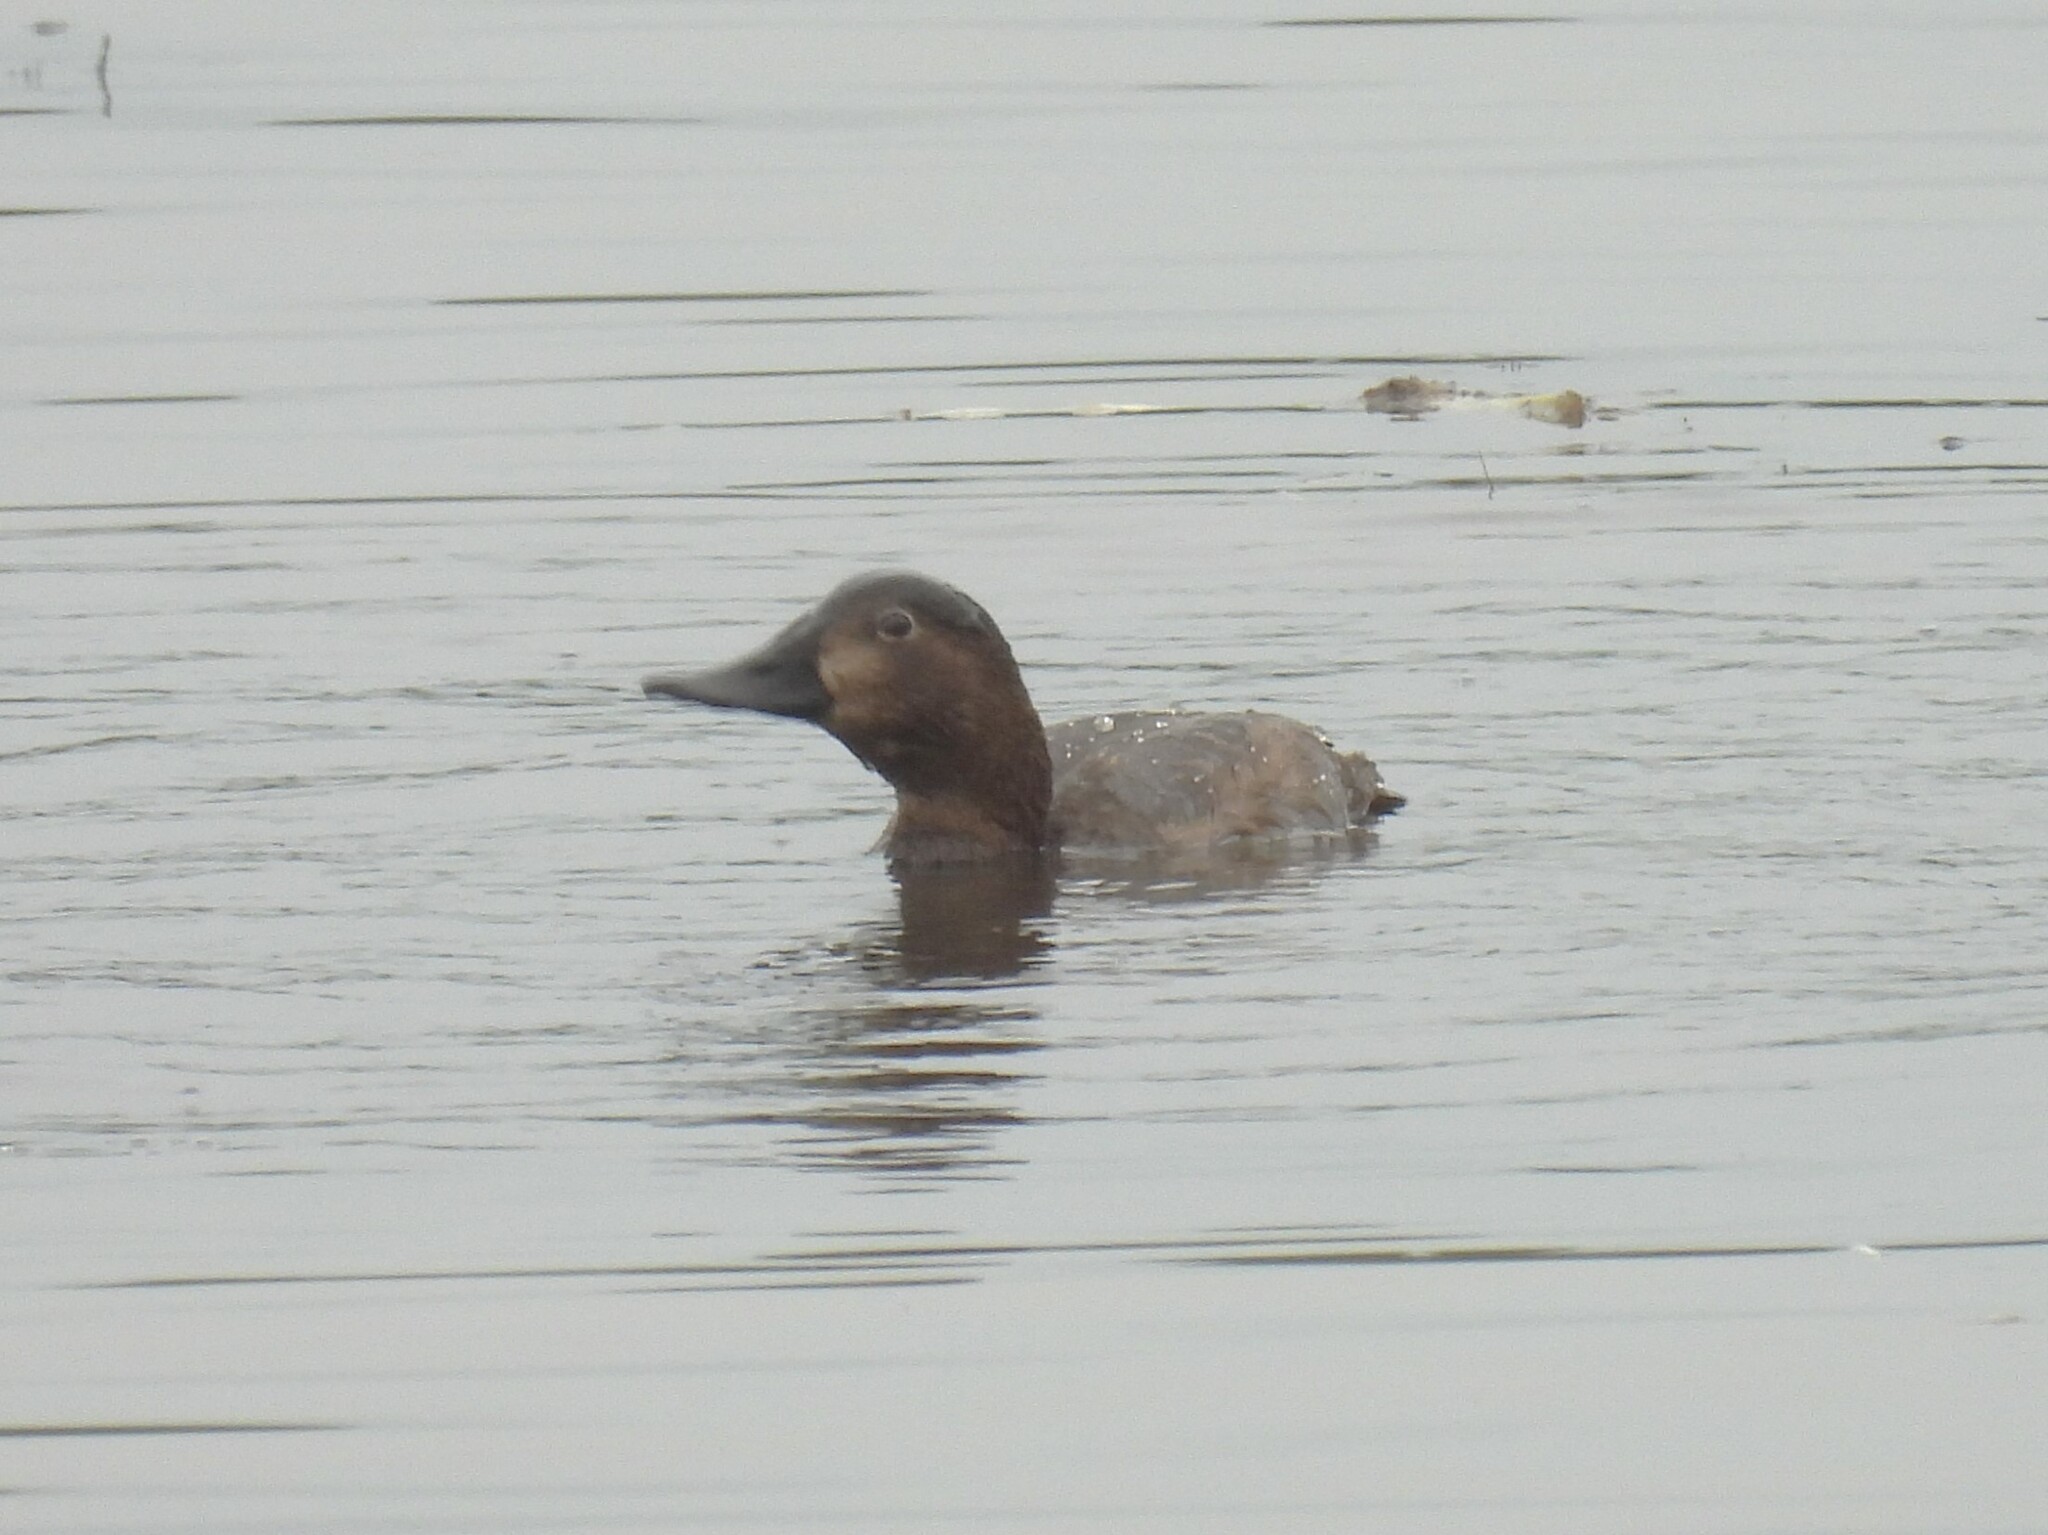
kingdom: Animalia
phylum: Chordata
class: Aves
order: Anseriformes
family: Anatidae
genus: Aythya
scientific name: Aythya ferina
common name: Common pochard
